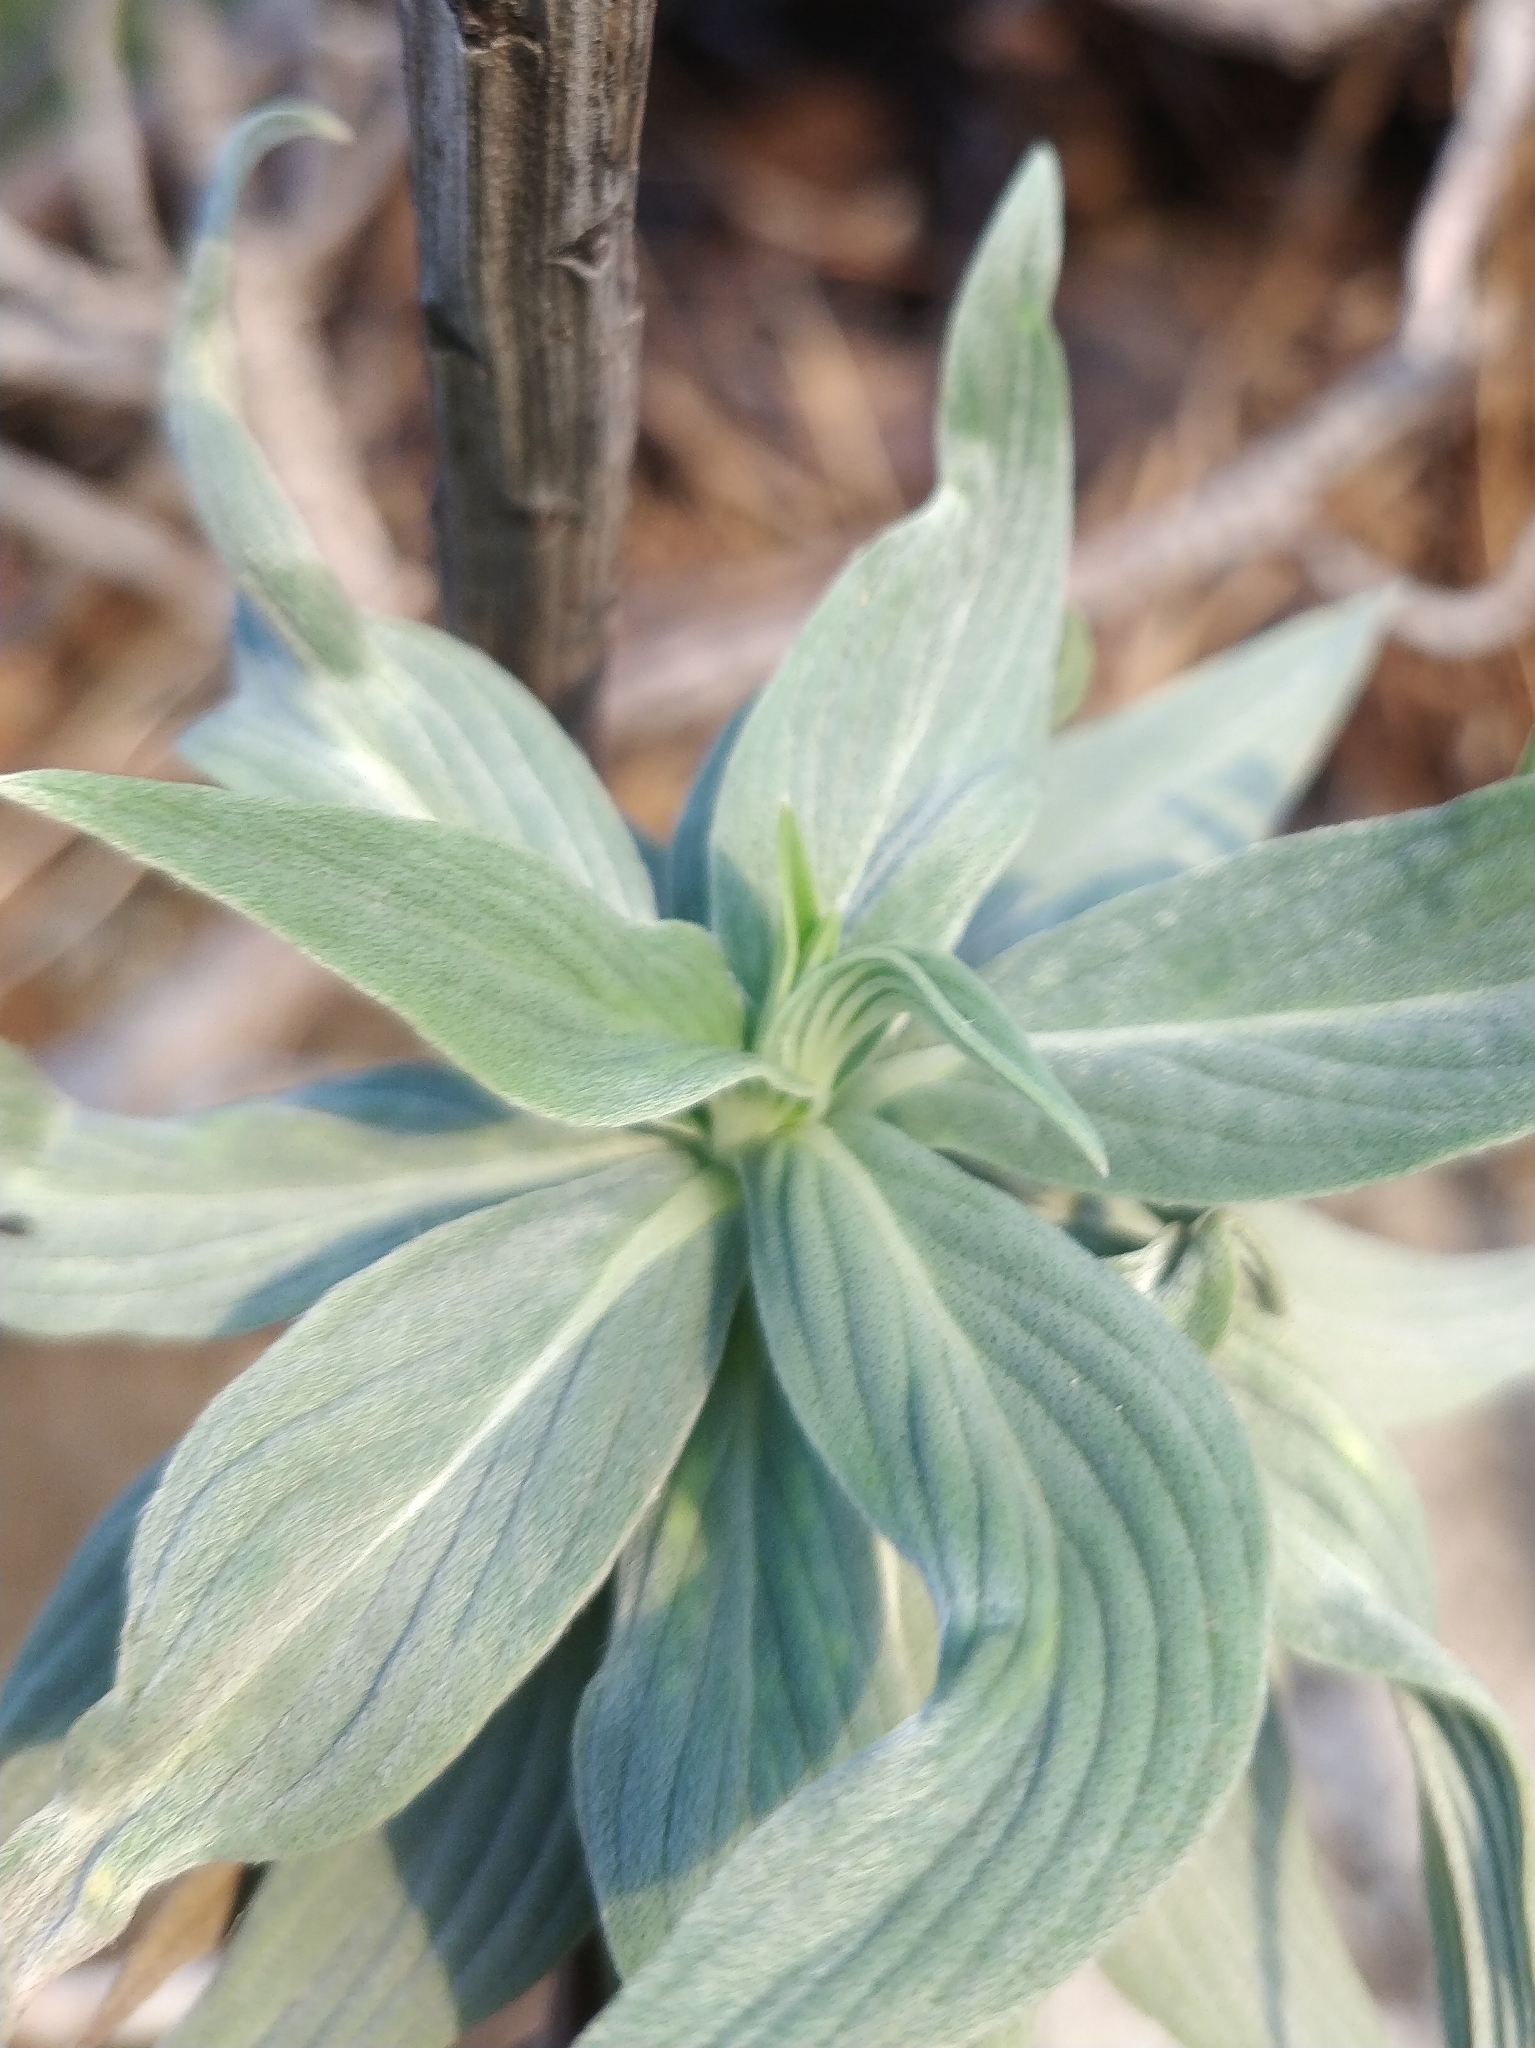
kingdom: Plantae
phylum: Tracheophyta
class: Magnoliopsida
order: Boraginales
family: Boraginaceae
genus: Echium
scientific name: Echium nervosum
